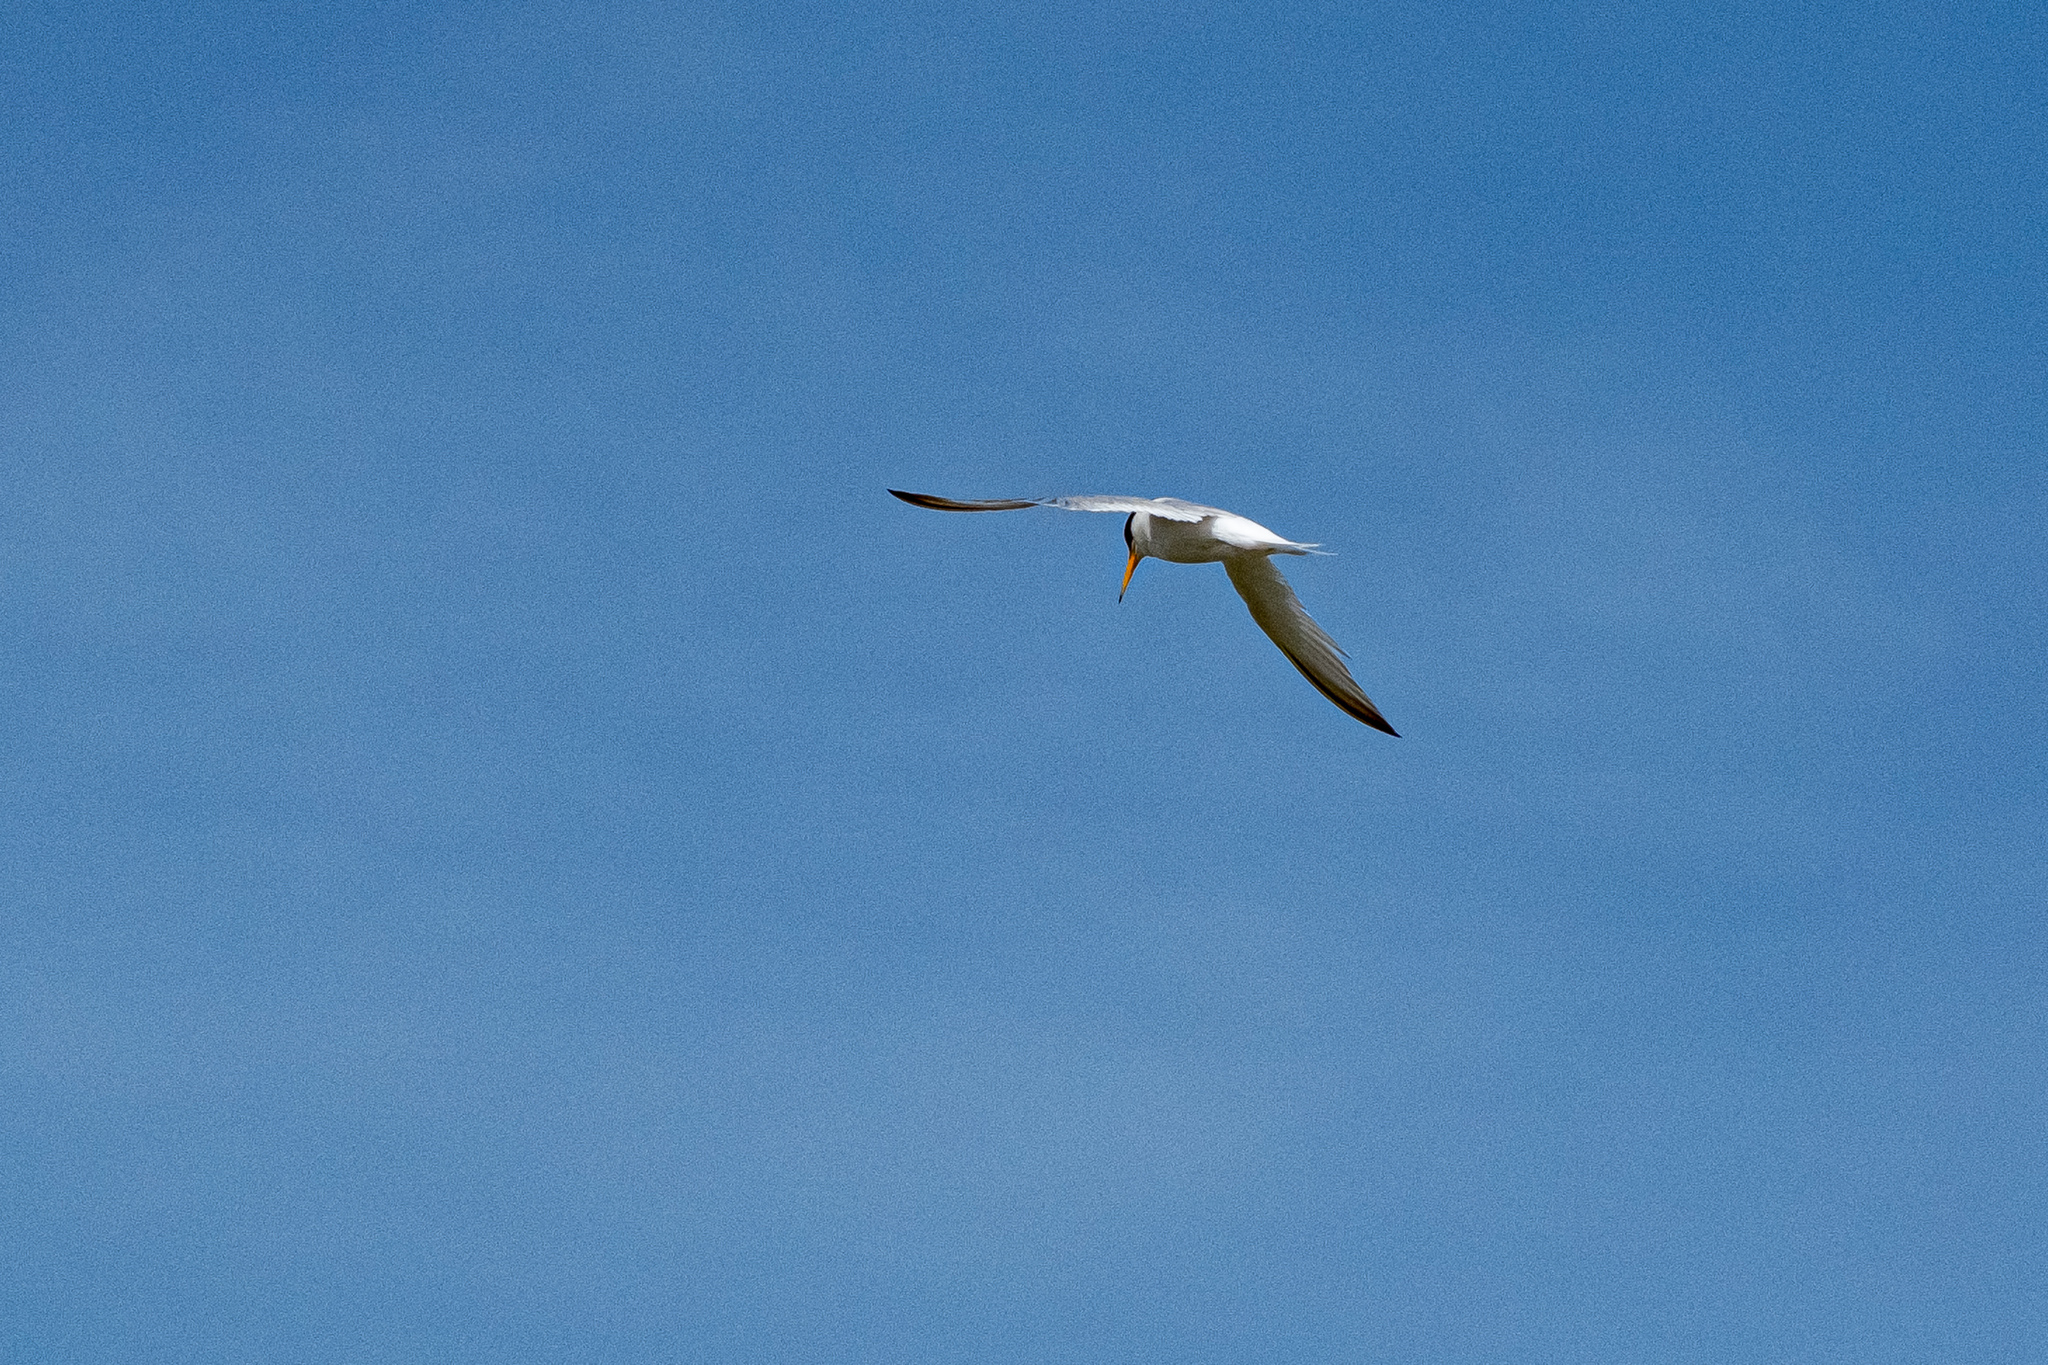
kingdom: Animalia
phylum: Chordata
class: Aves
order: Charadriiformes
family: Laridae
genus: Sternula
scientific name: Sternula albifrons
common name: Little tern
